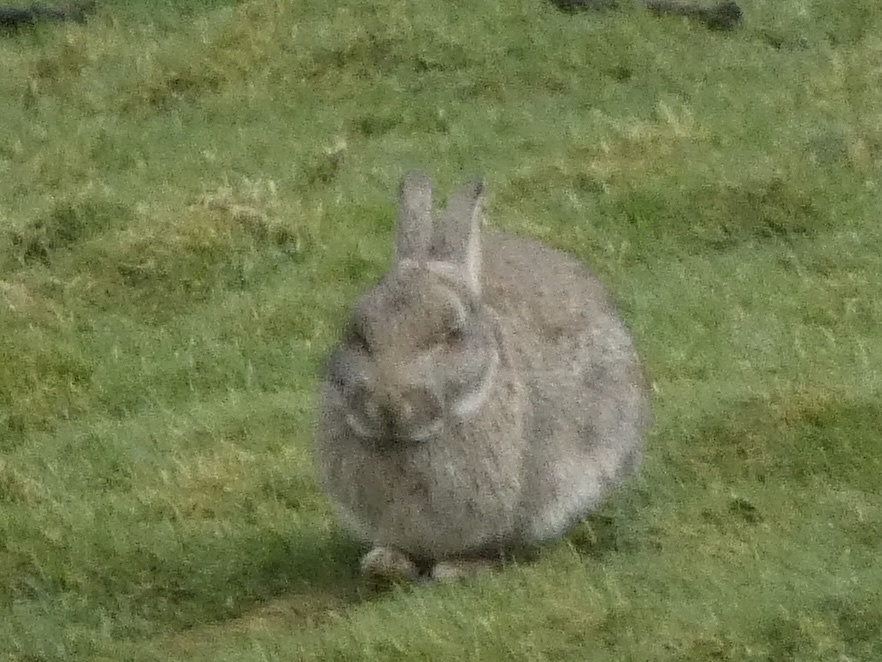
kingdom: Animalia
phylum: Chordata
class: Mammalia
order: Lagomorpha
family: Leporidae
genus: Oryctolagus
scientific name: Oryctolagus cuniculus
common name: European rabbit
